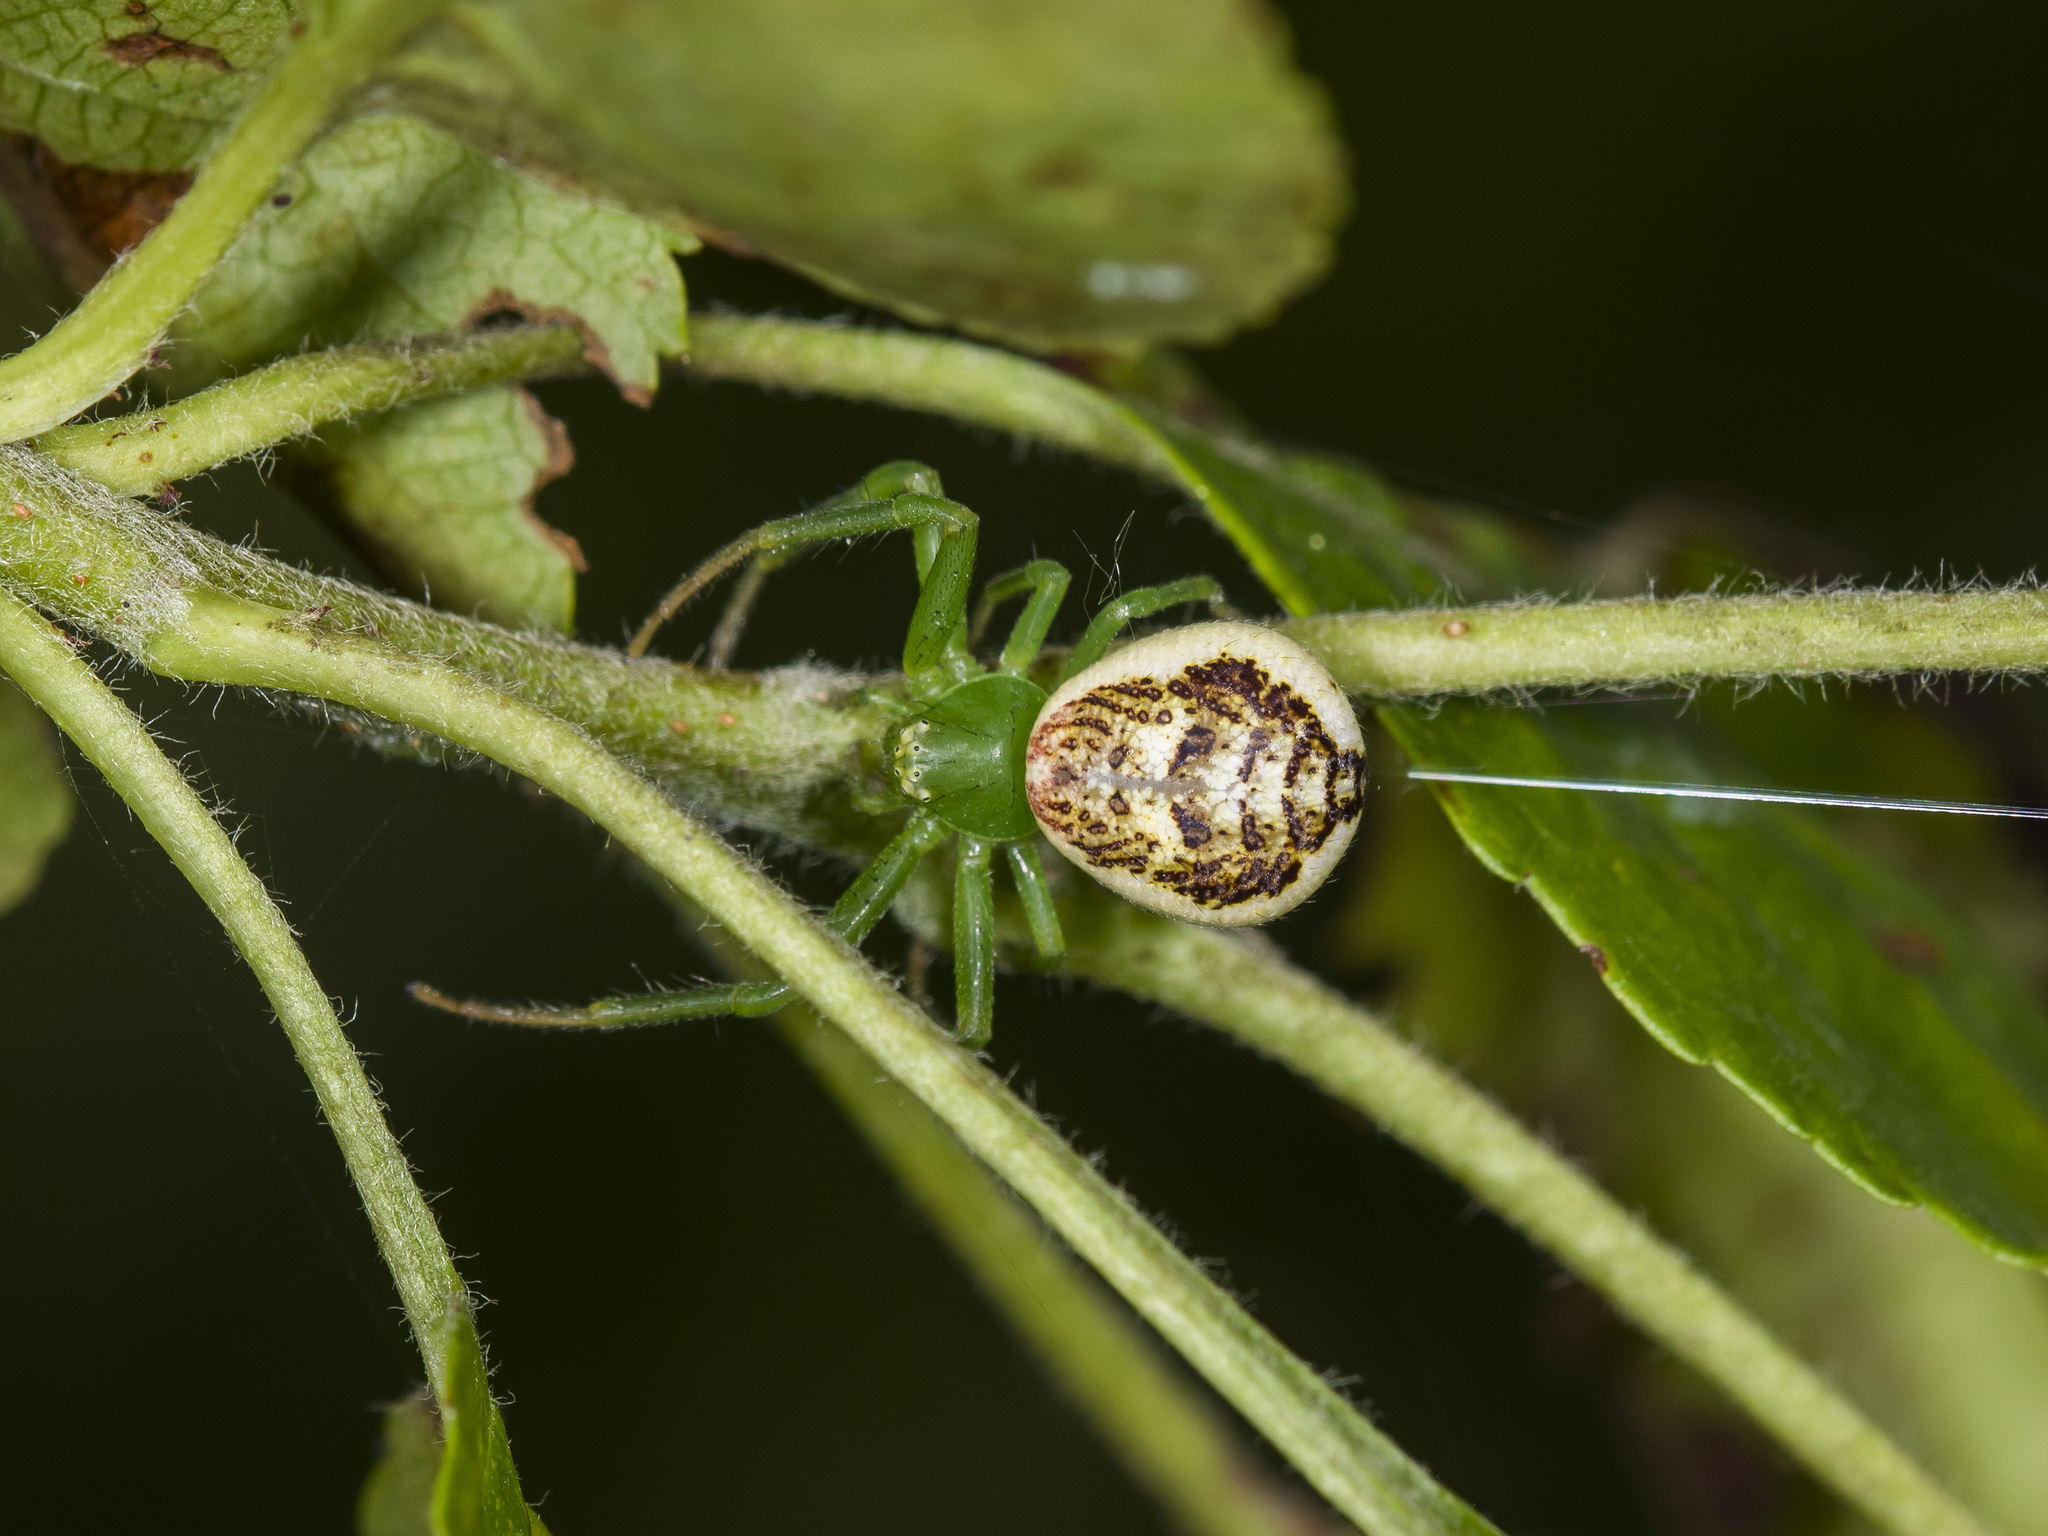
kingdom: Animalia
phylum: Arthropoda
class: Arachnida
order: Araneae
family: Thomisidae
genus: Diaea
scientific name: Diaea suspiciosa
